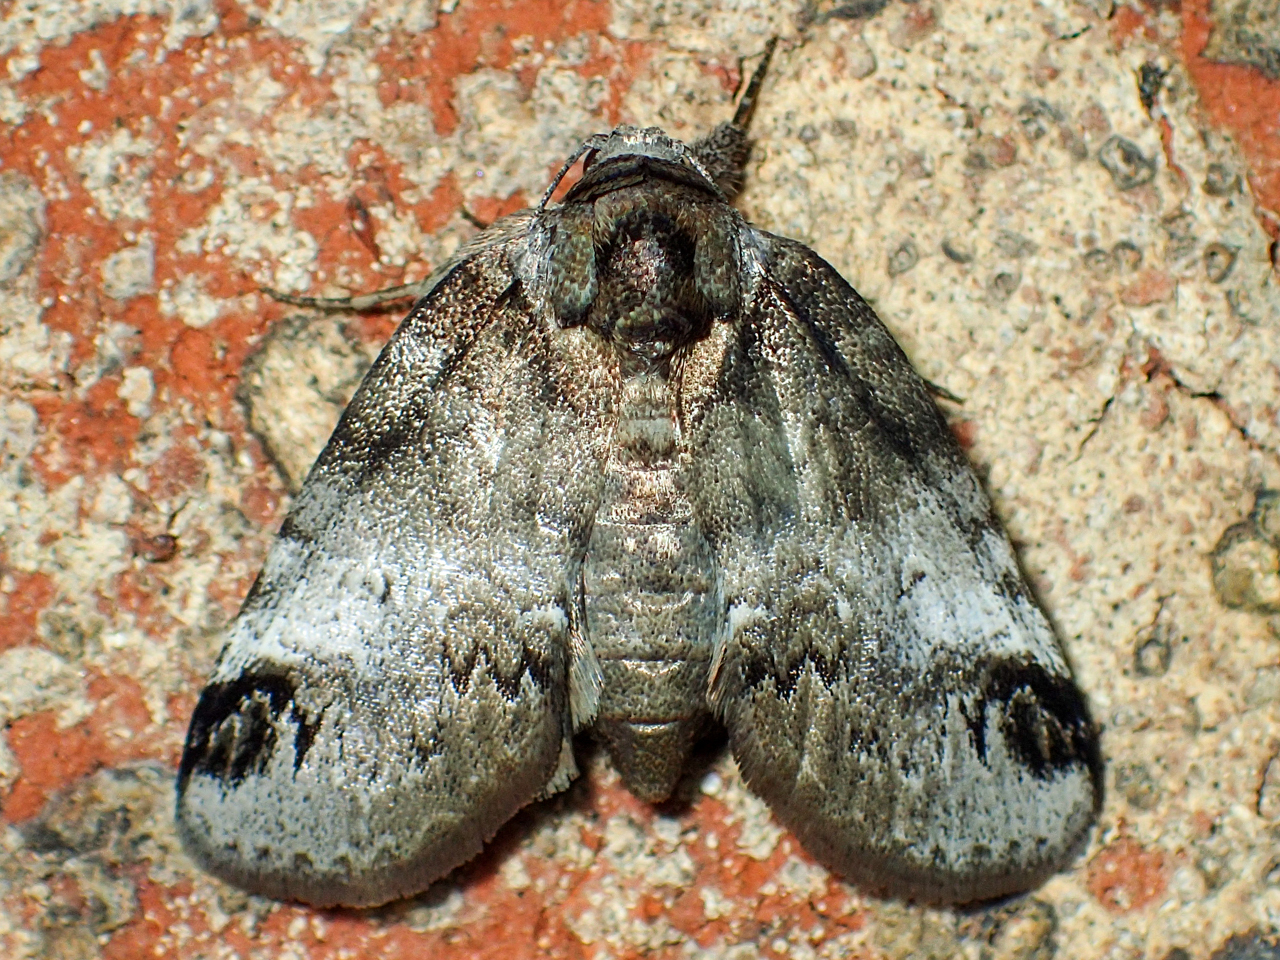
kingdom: Animalia
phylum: Arthropoda
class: Insecta
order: Lepidoptera
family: Nolidae
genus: Baileya
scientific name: Baileya dormitans
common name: Sleeping baileya moth
